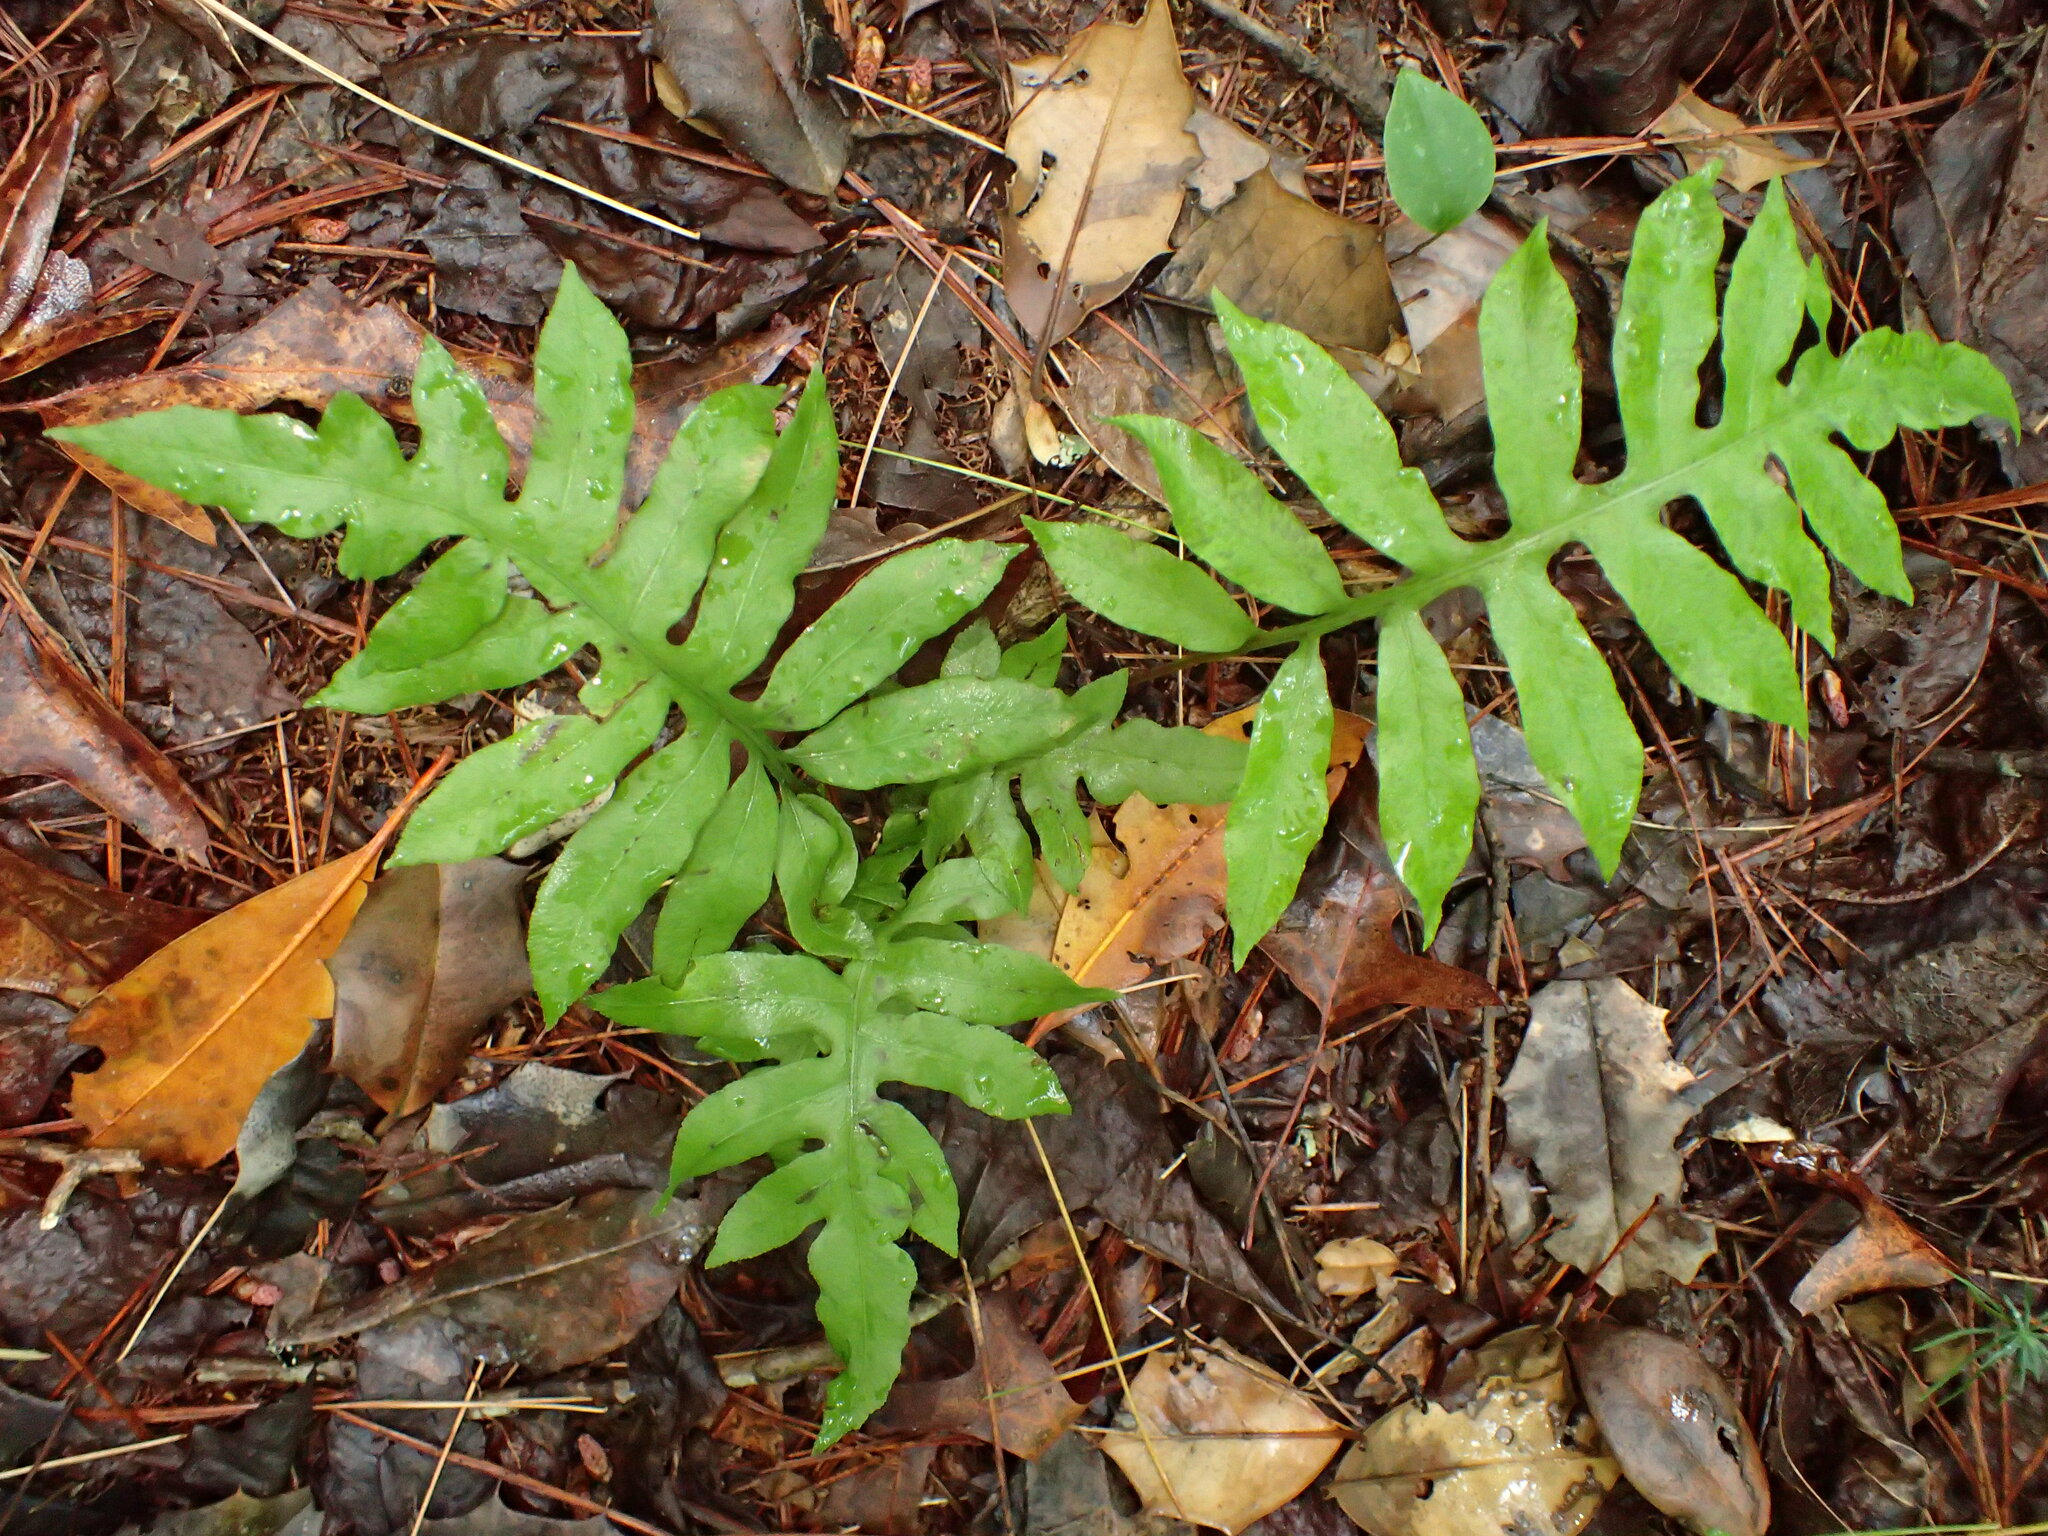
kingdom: Plantae
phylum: Tracheophyta
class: Polypodiopsida
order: Polypodiales
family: Blechnaceae
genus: Lorinseria
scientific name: Lorinseria areolata
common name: Dwarf chain fern
